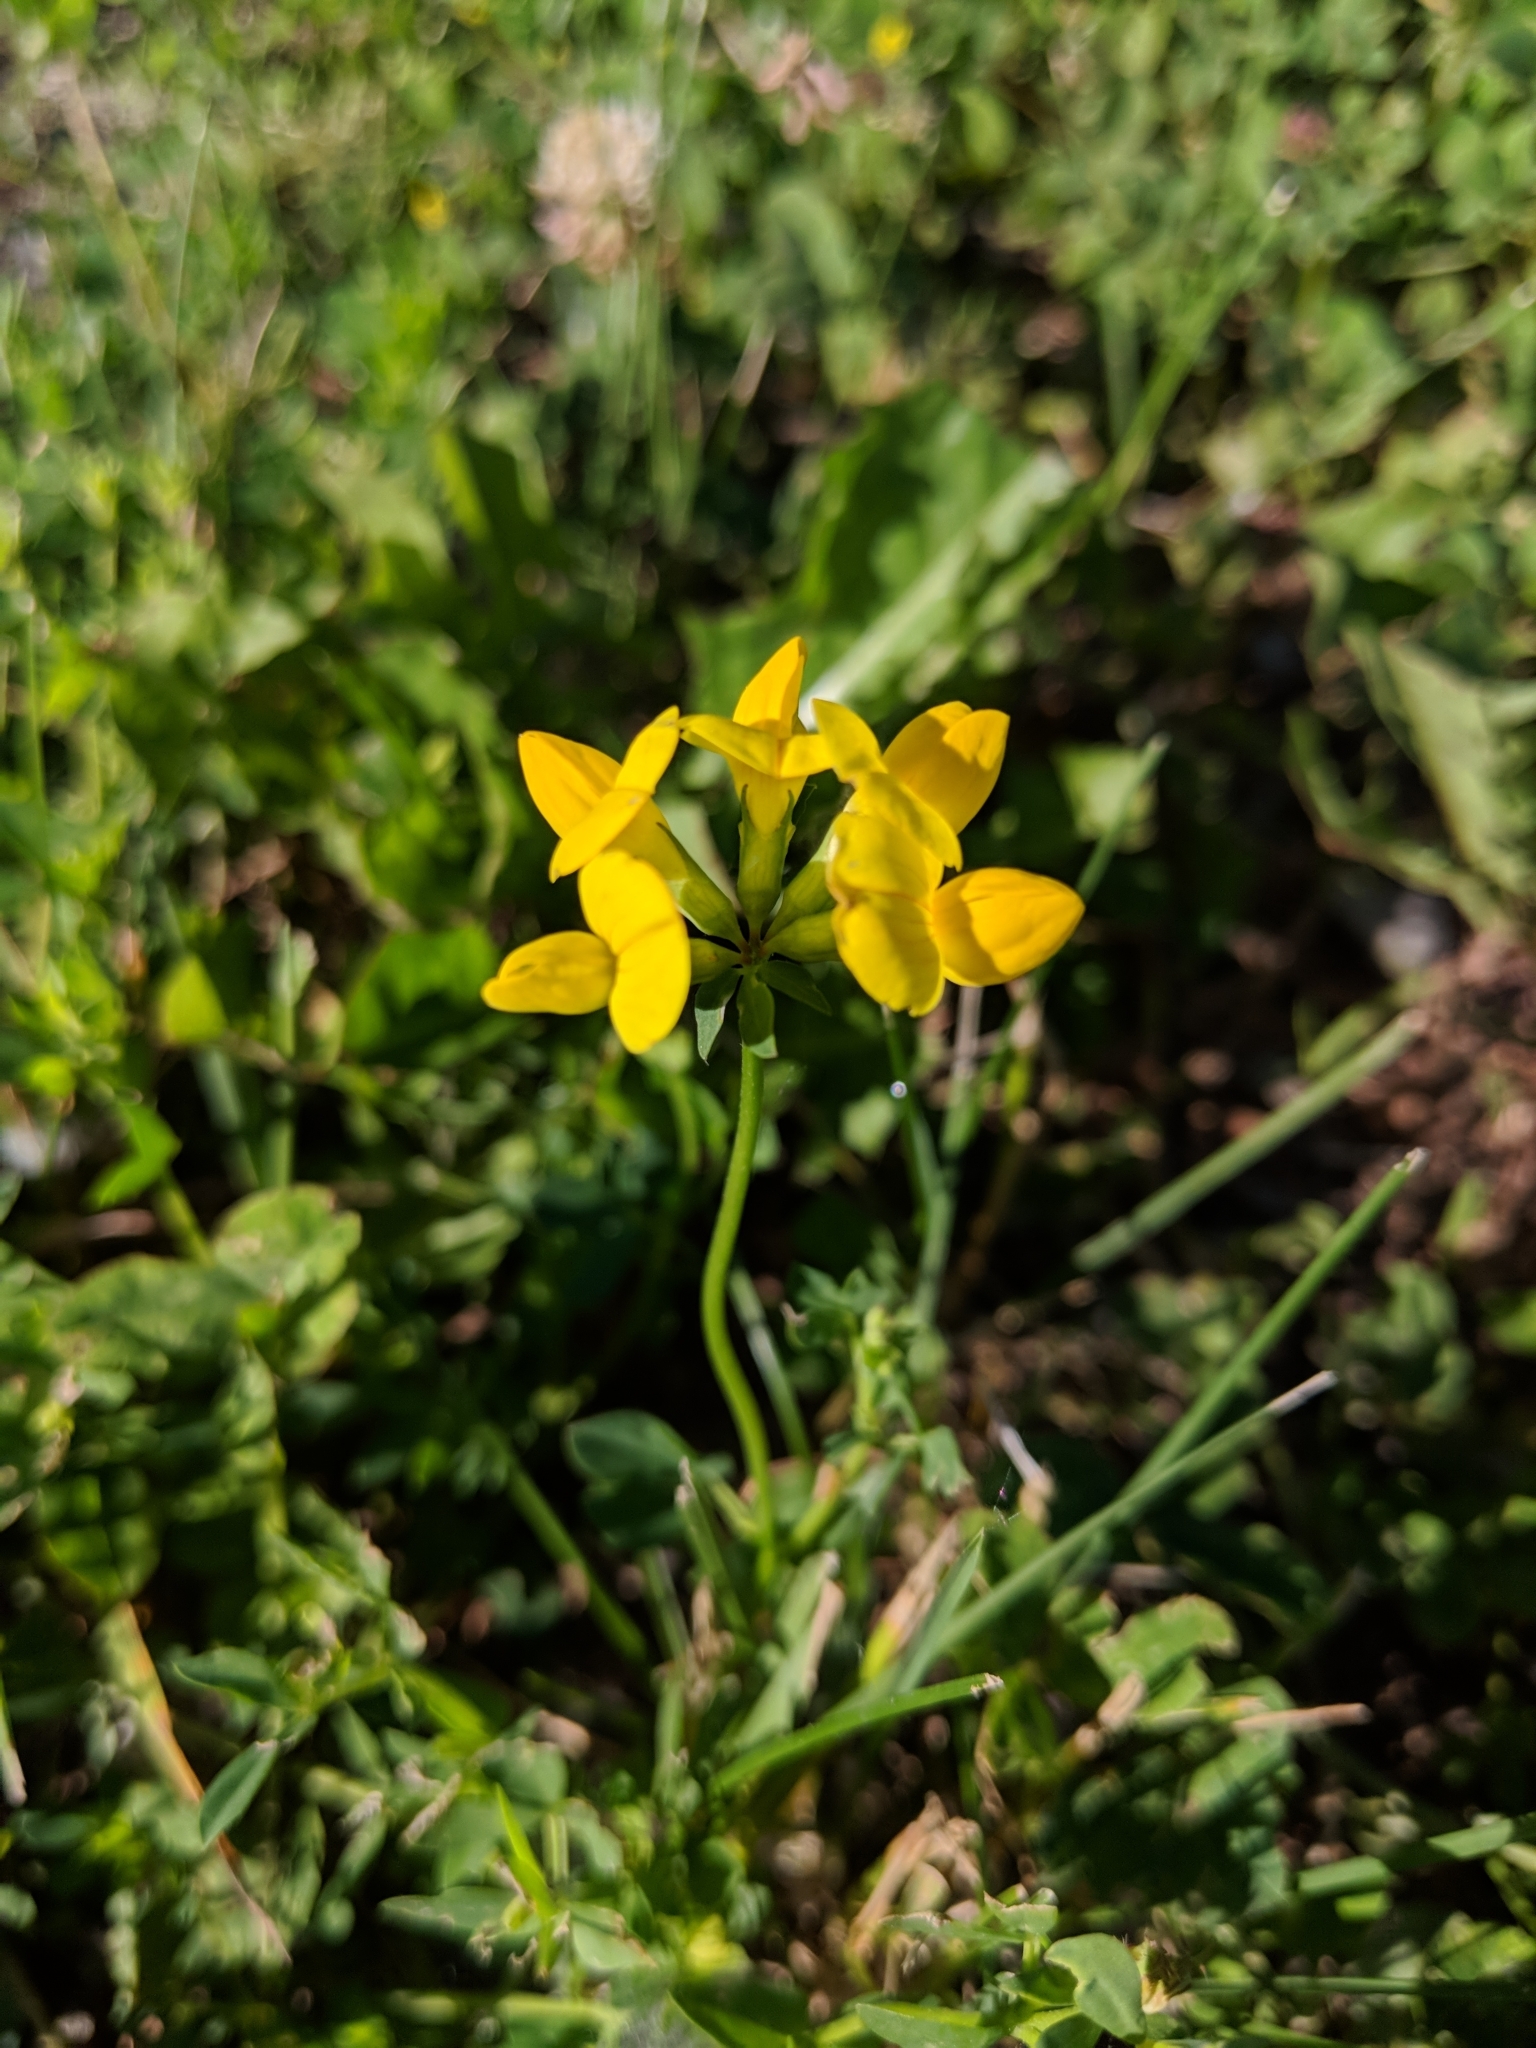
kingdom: Plantae
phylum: Tracheophyta
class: Magnoliopsida
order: Fabales
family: Fabaceae
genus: Lotus
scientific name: Lotus corniculatus
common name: Common bird's-foot-trefoil
